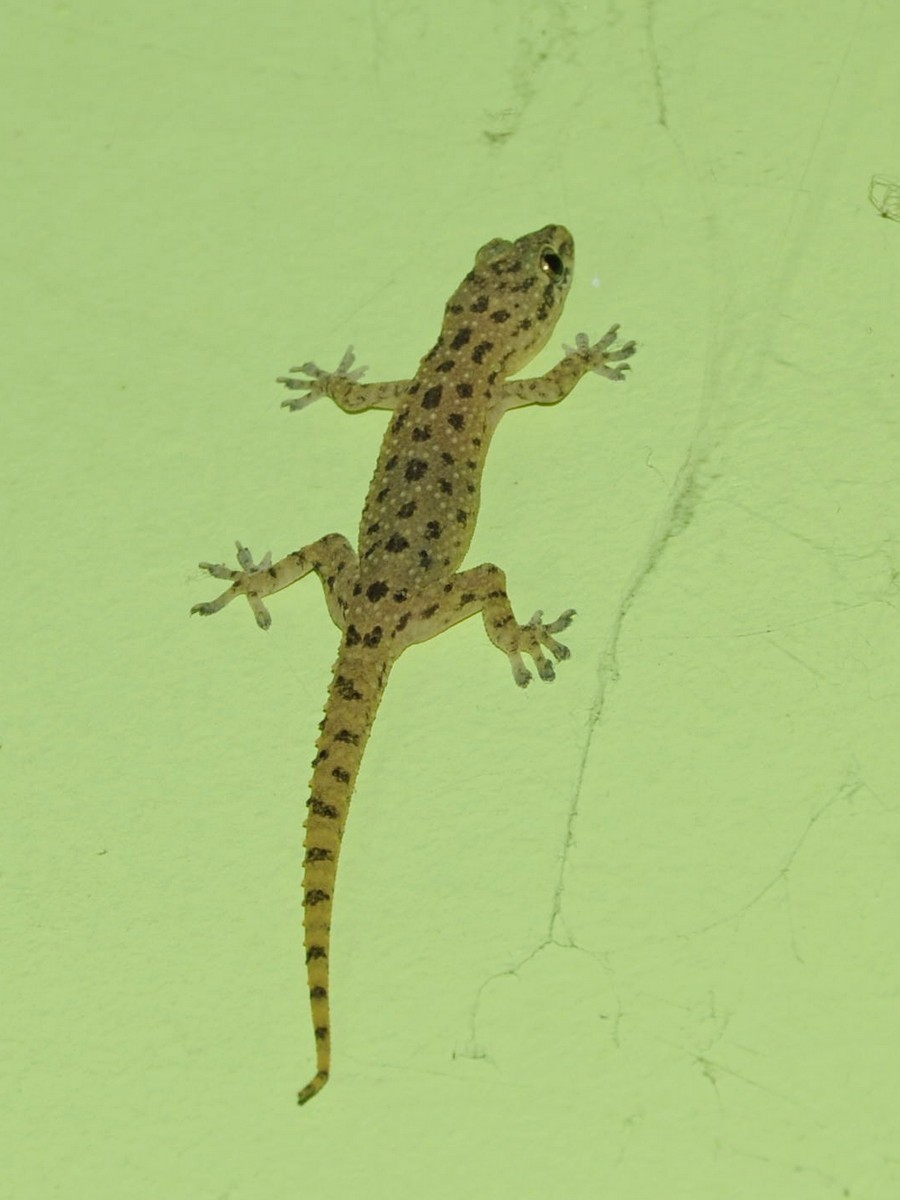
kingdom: Animalia
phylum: Chordata
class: Squamata
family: Gekkonidae
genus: Hemidactylus
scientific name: Hemidactylus parvimaculatus
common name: Spotted house gecko
